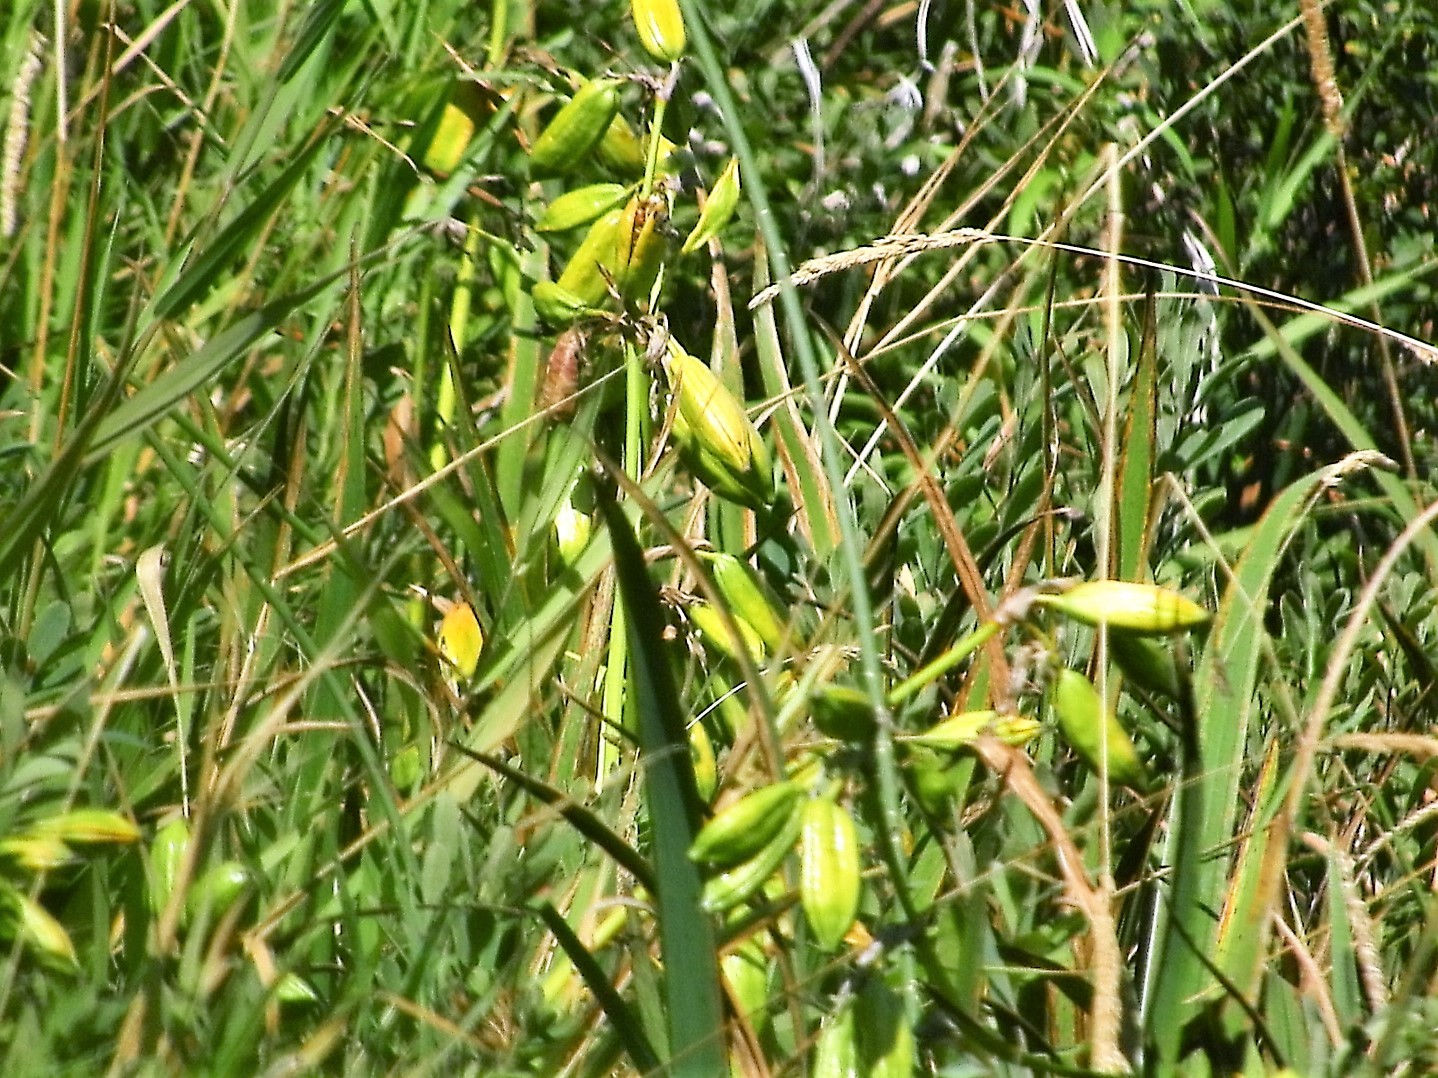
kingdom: Plantae
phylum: Tracheophyta
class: Liliopsida
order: Asparagales
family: Iridaceae
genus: Iris
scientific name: Iris pseudacorus
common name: Yellow flag
